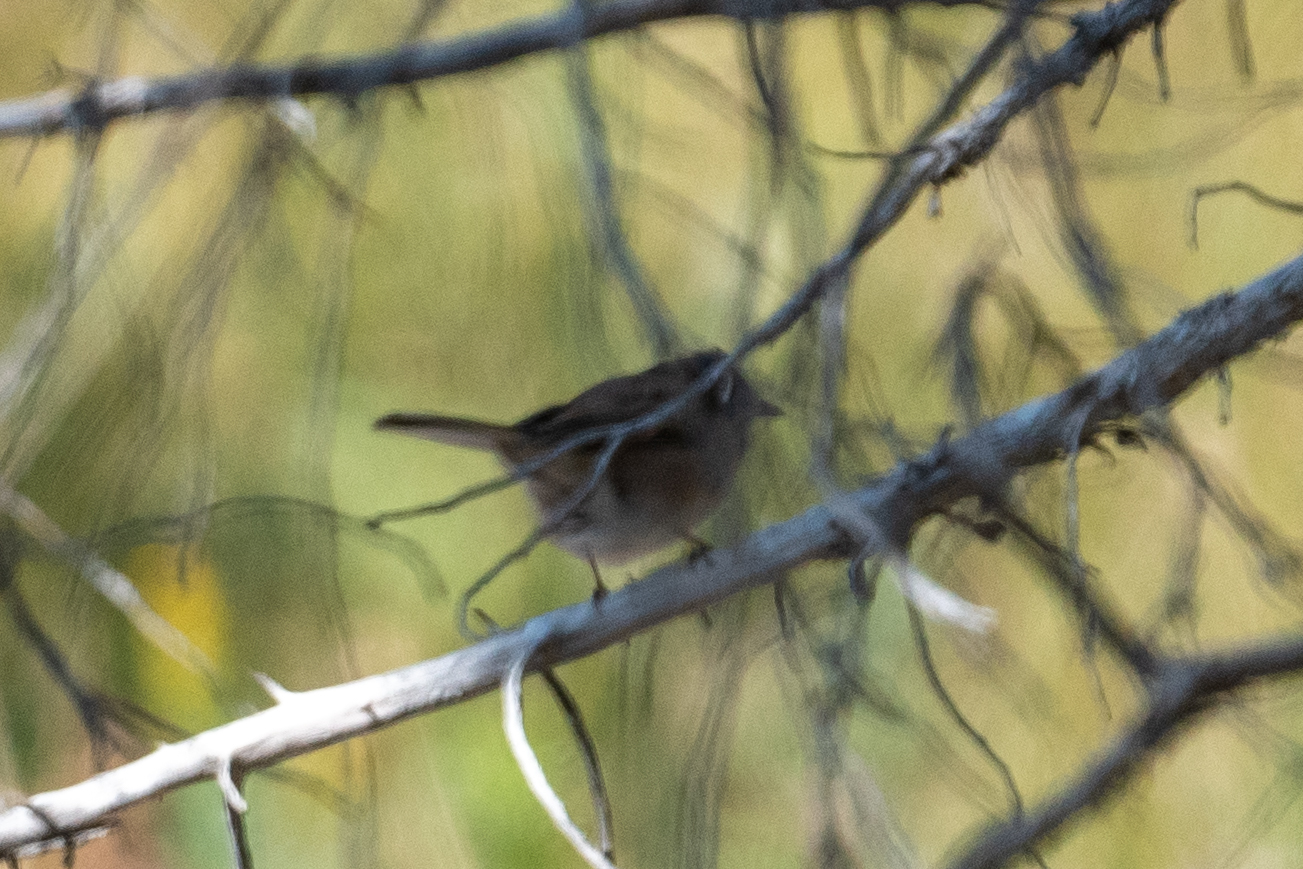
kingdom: Animalia
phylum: Chordata
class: Aves
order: Passeriformes
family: Passerellidae
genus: Junco
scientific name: Junco hyemalis
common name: Dark-eyed junco
